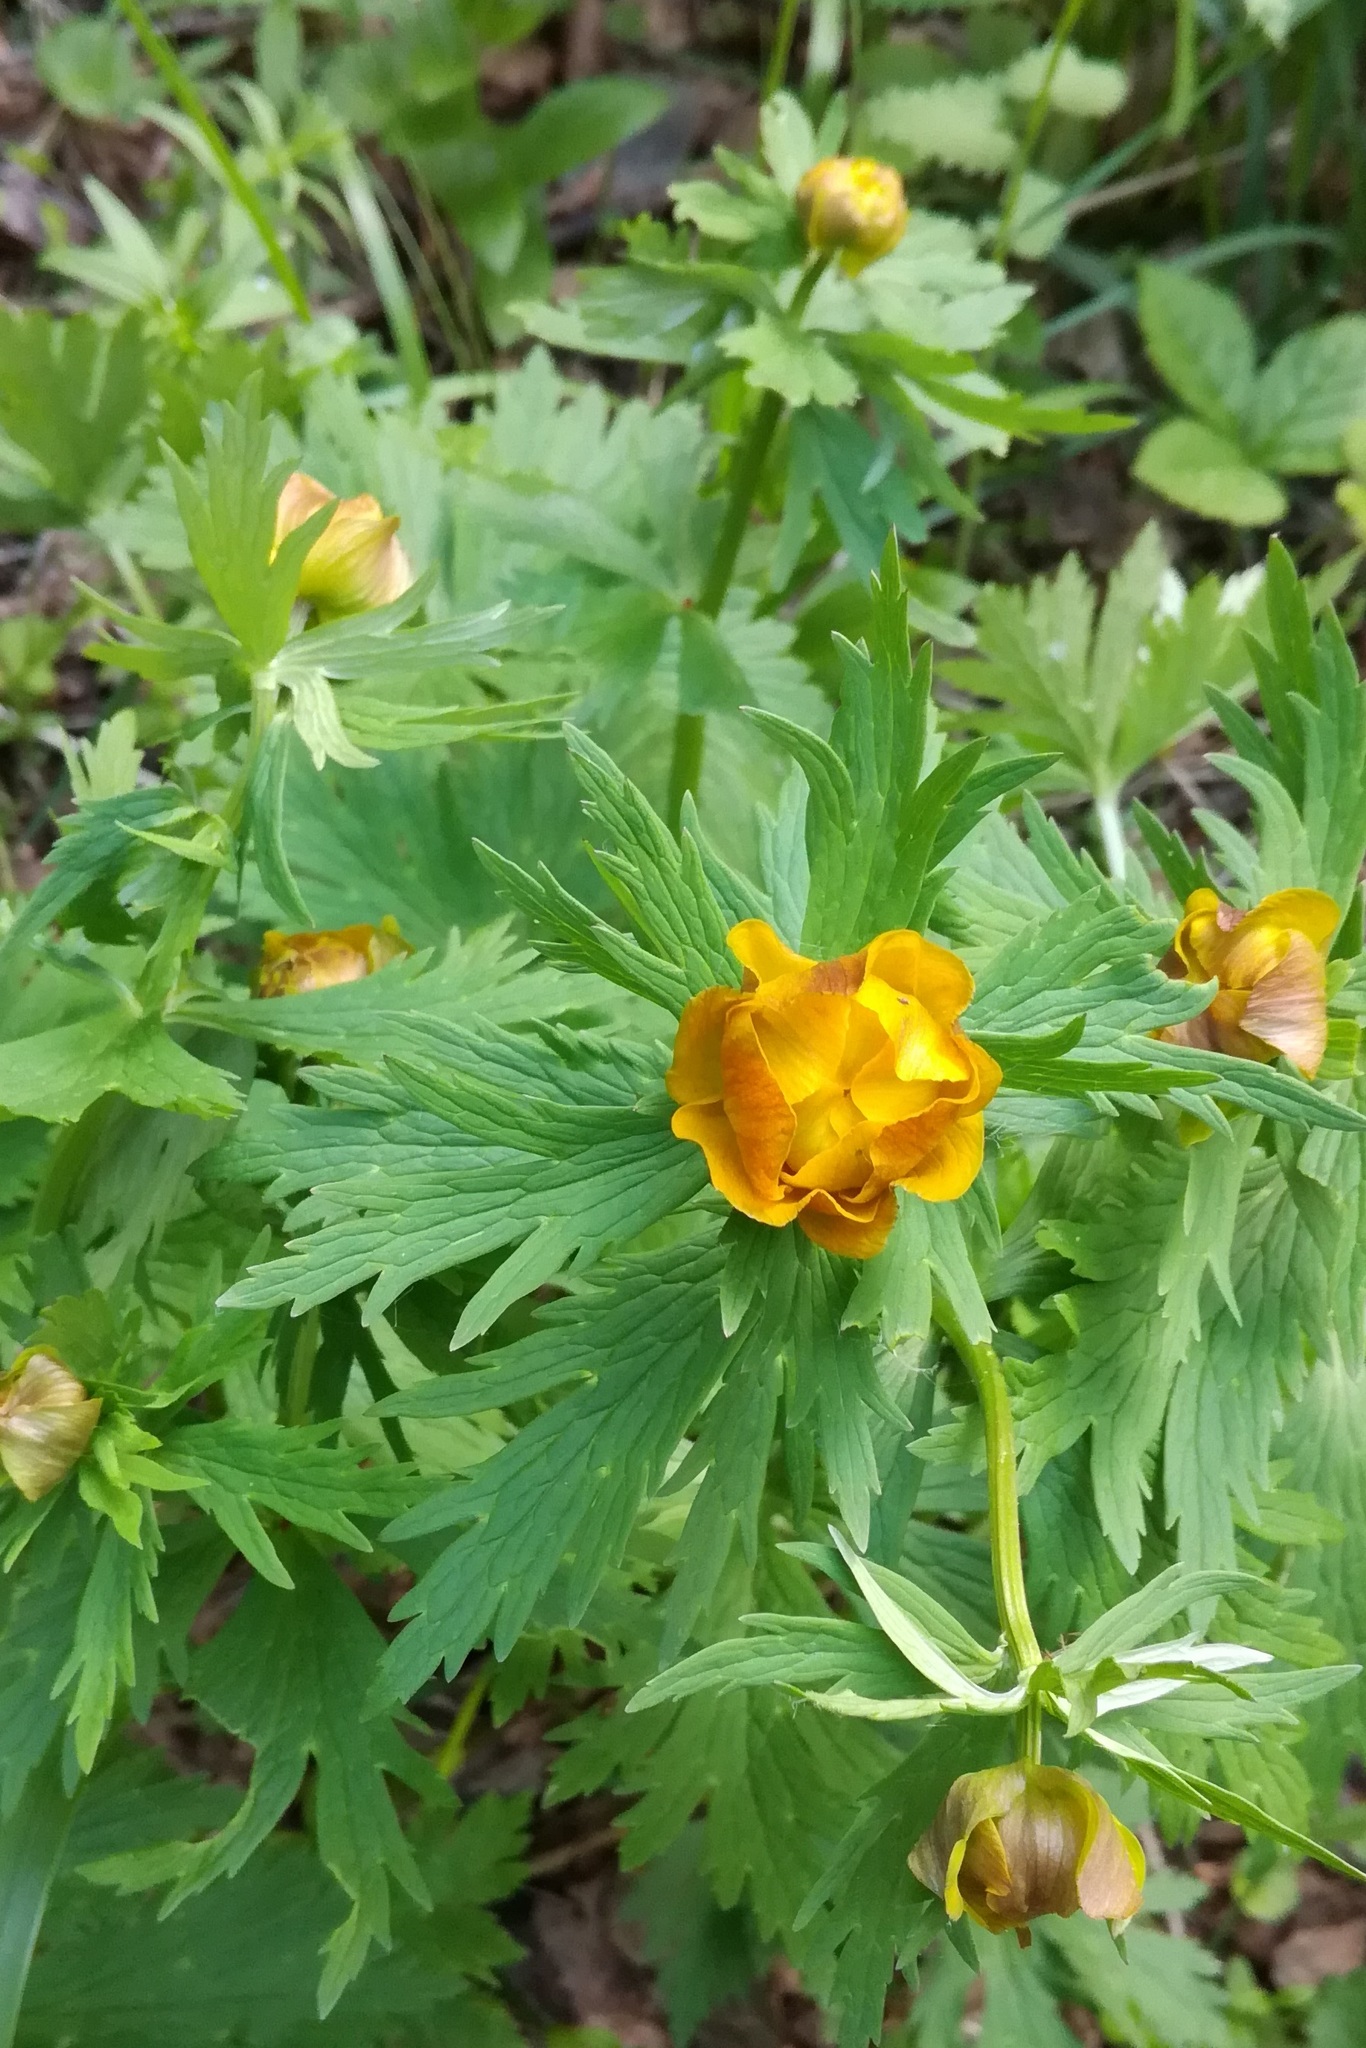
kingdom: Plantae
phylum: Tracheophyta
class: Magnoliopsida
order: Ranunculales
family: Ranunculaceae
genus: Trollius
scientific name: Trollius asiaticus
